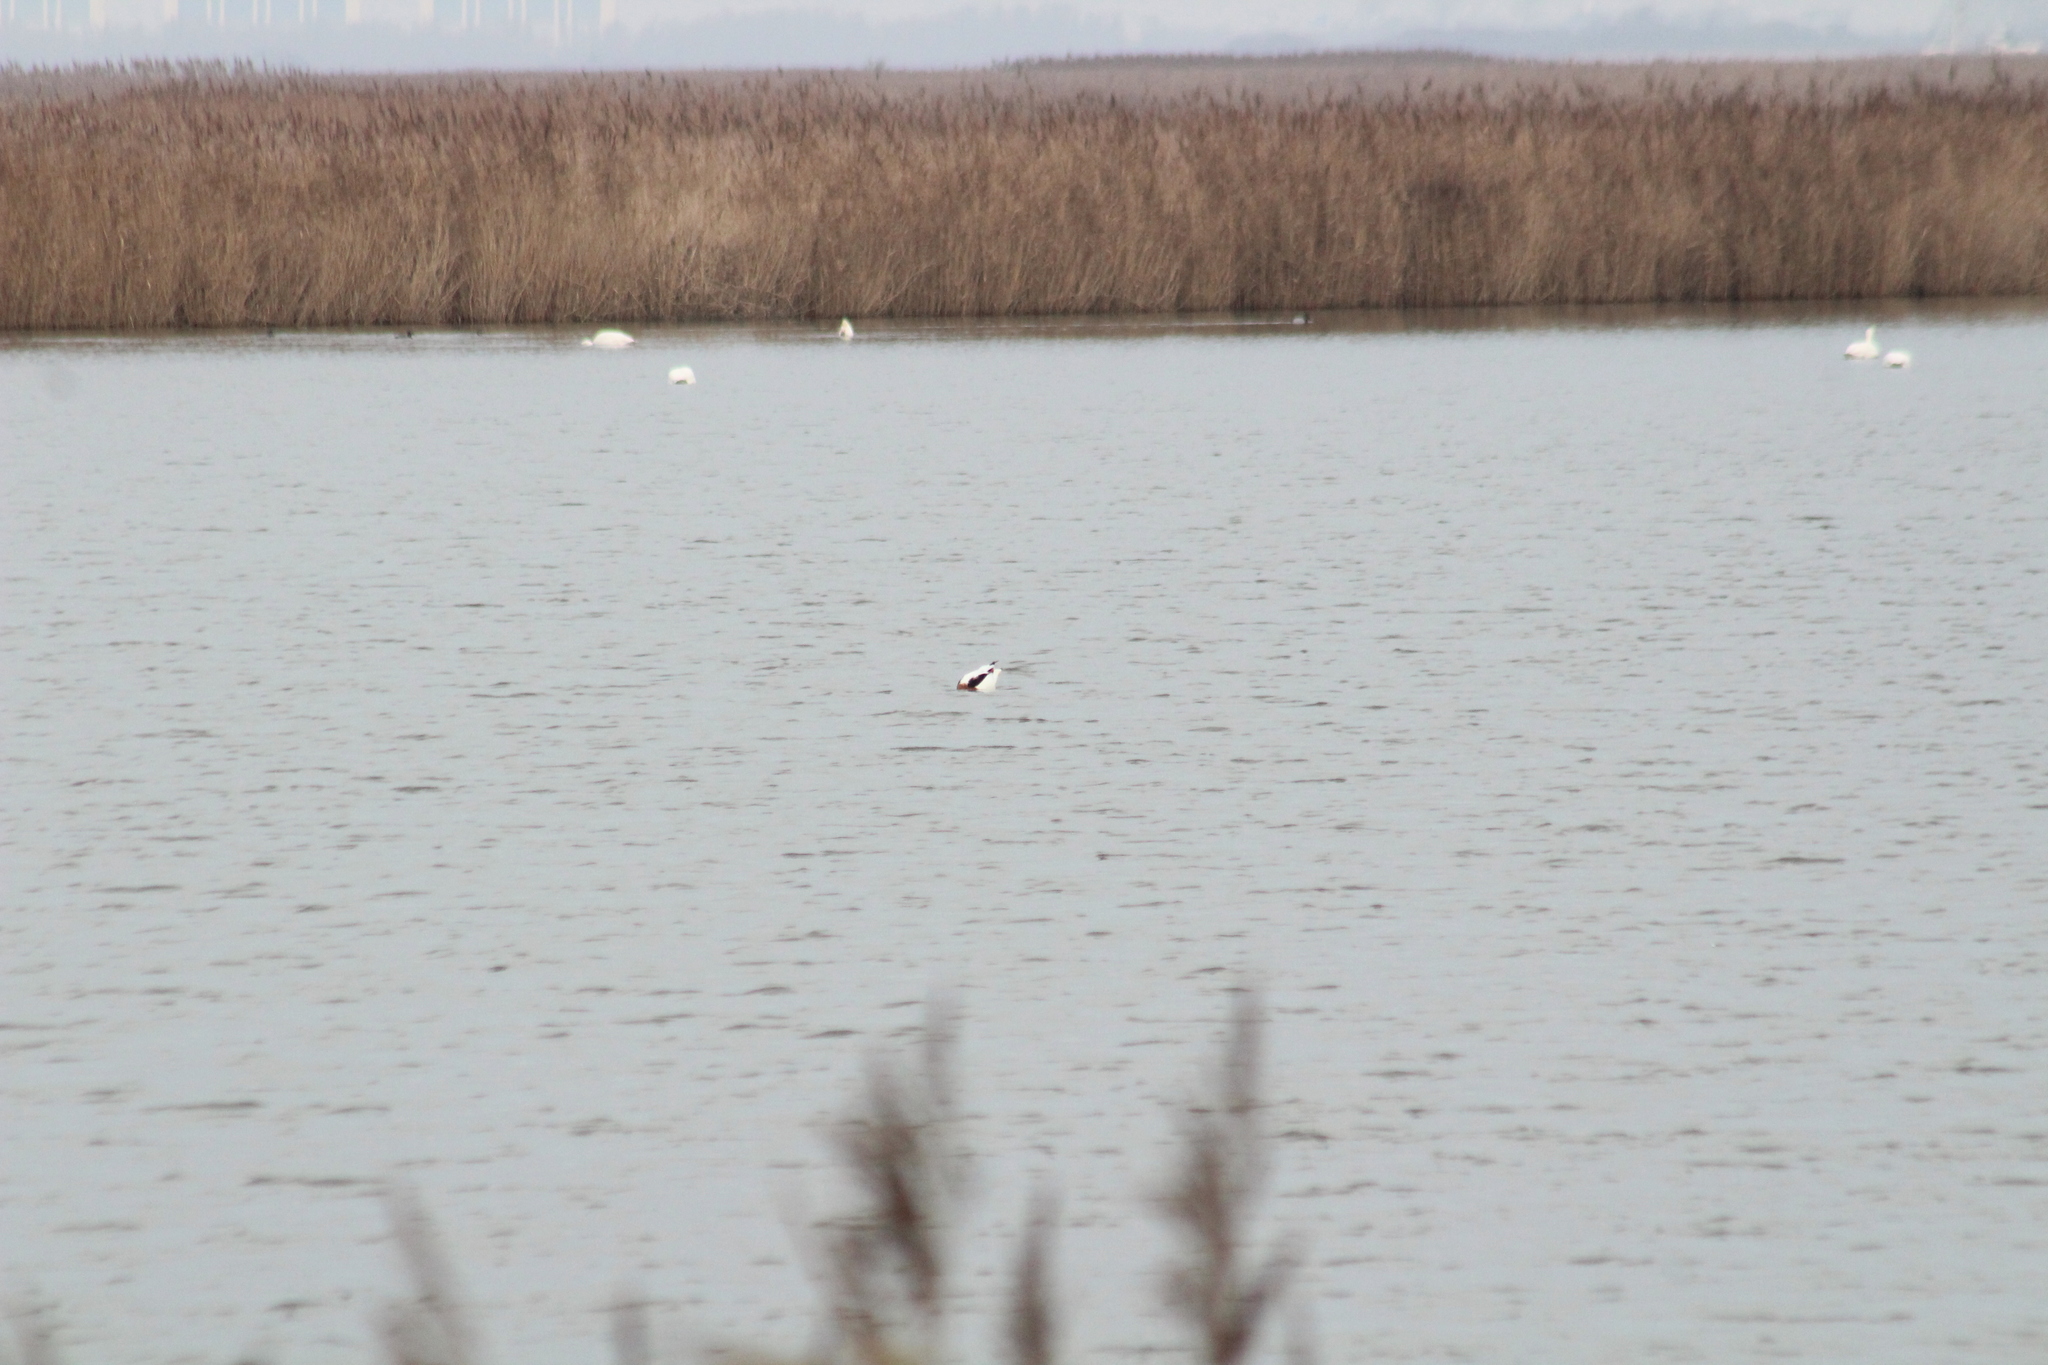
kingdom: Animalia
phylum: Chordata
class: Aves
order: Anseriformes
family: Anatidae
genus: Tadorna
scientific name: Tadorna tadorna
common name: Common shelduck
